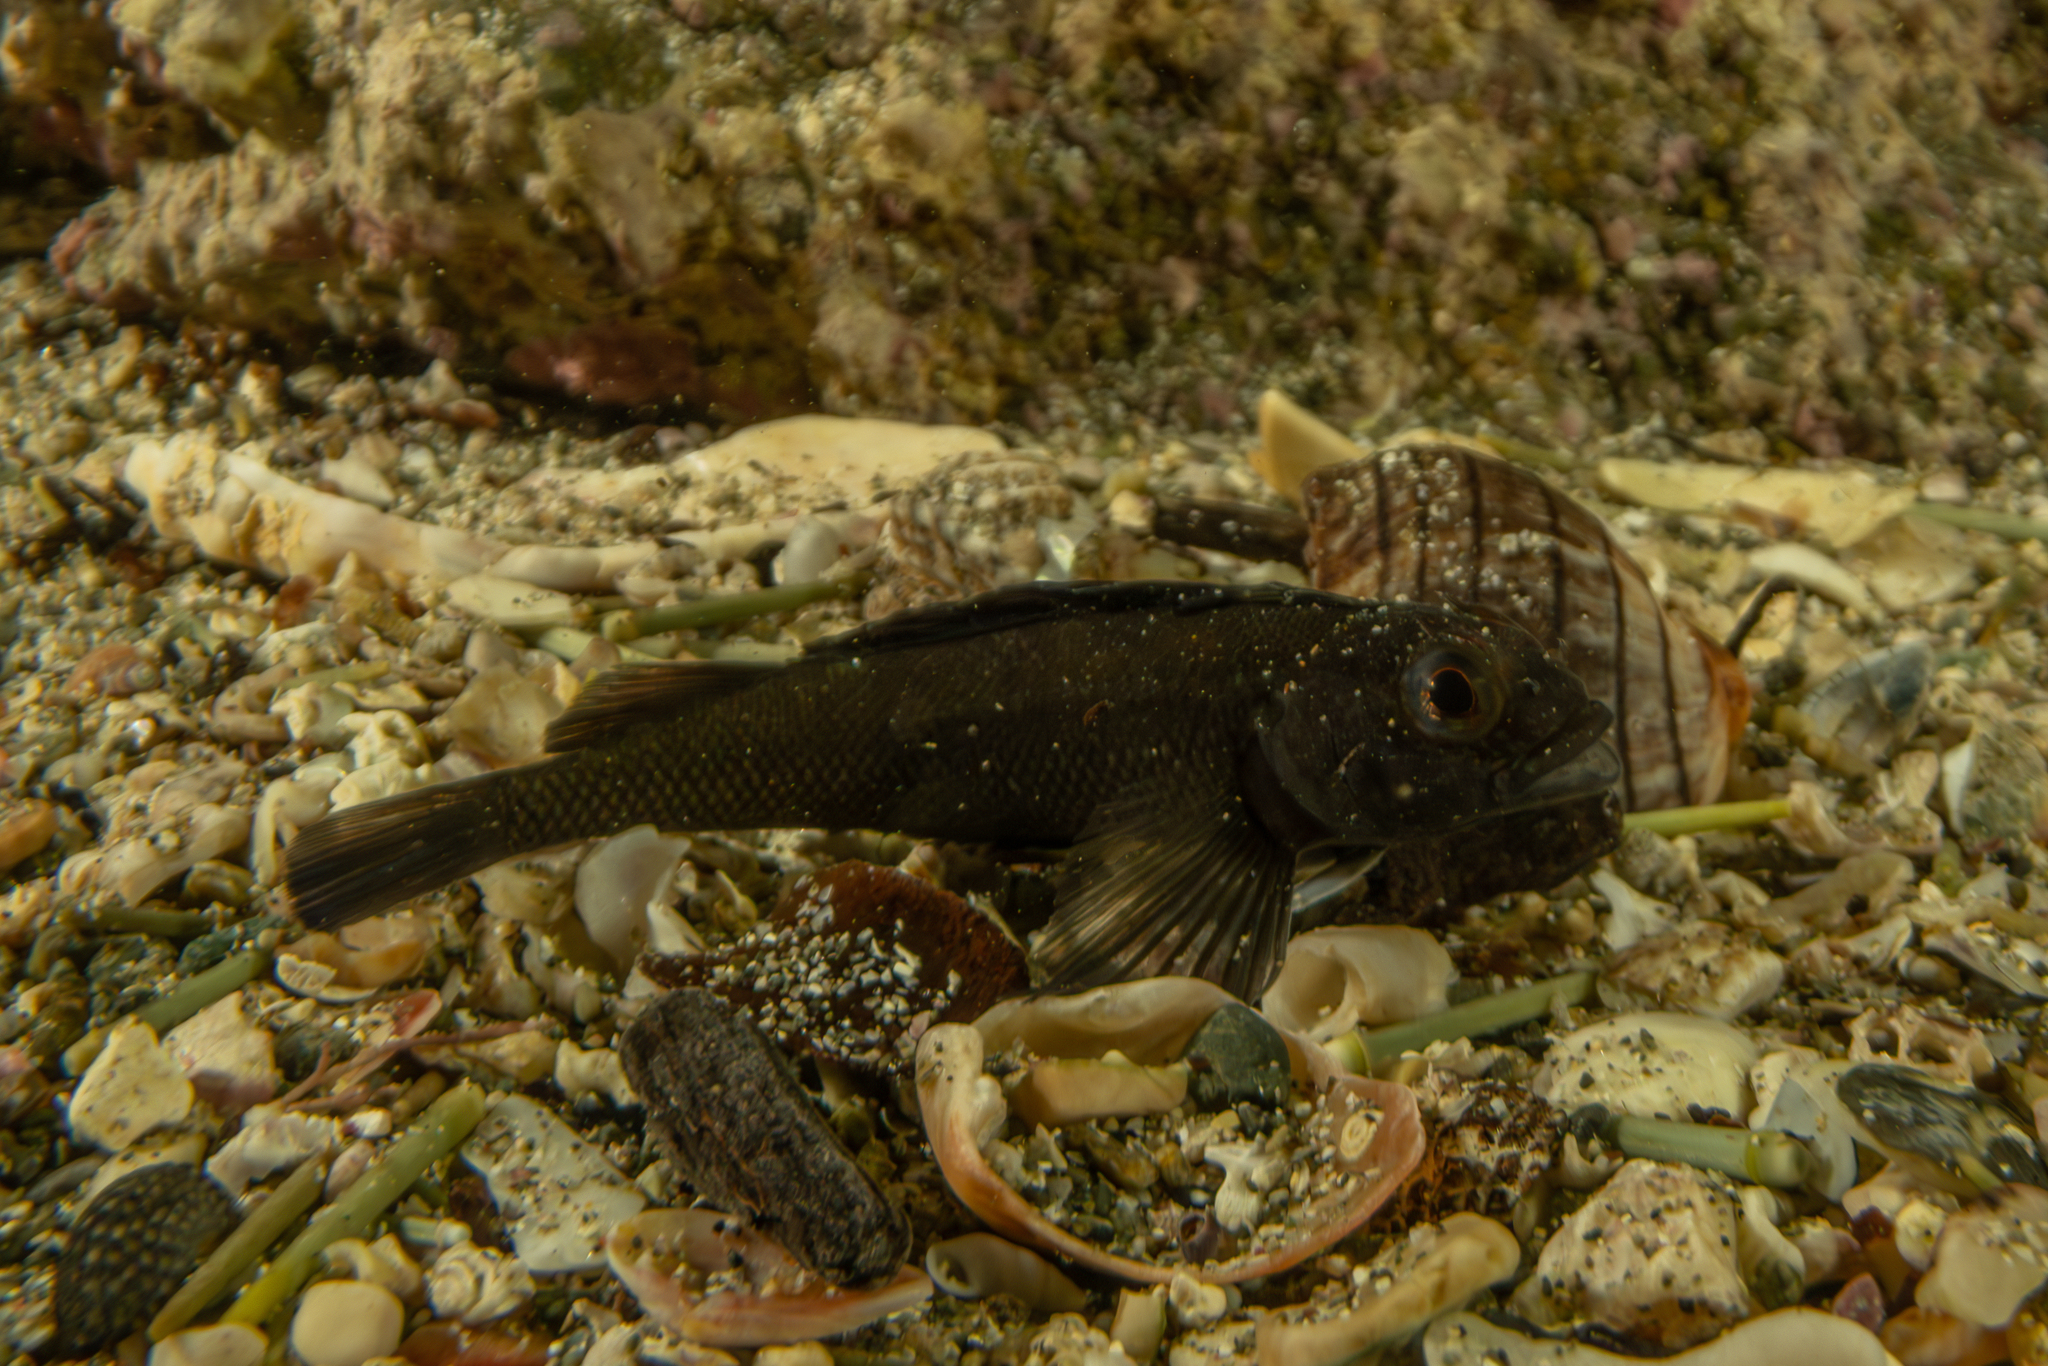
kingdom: Animalia
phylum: Chordata
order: Perciformes
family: Tripterygiidae
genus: Forsterygion
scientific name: Forsterygion lapillum
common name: Common triplefin
